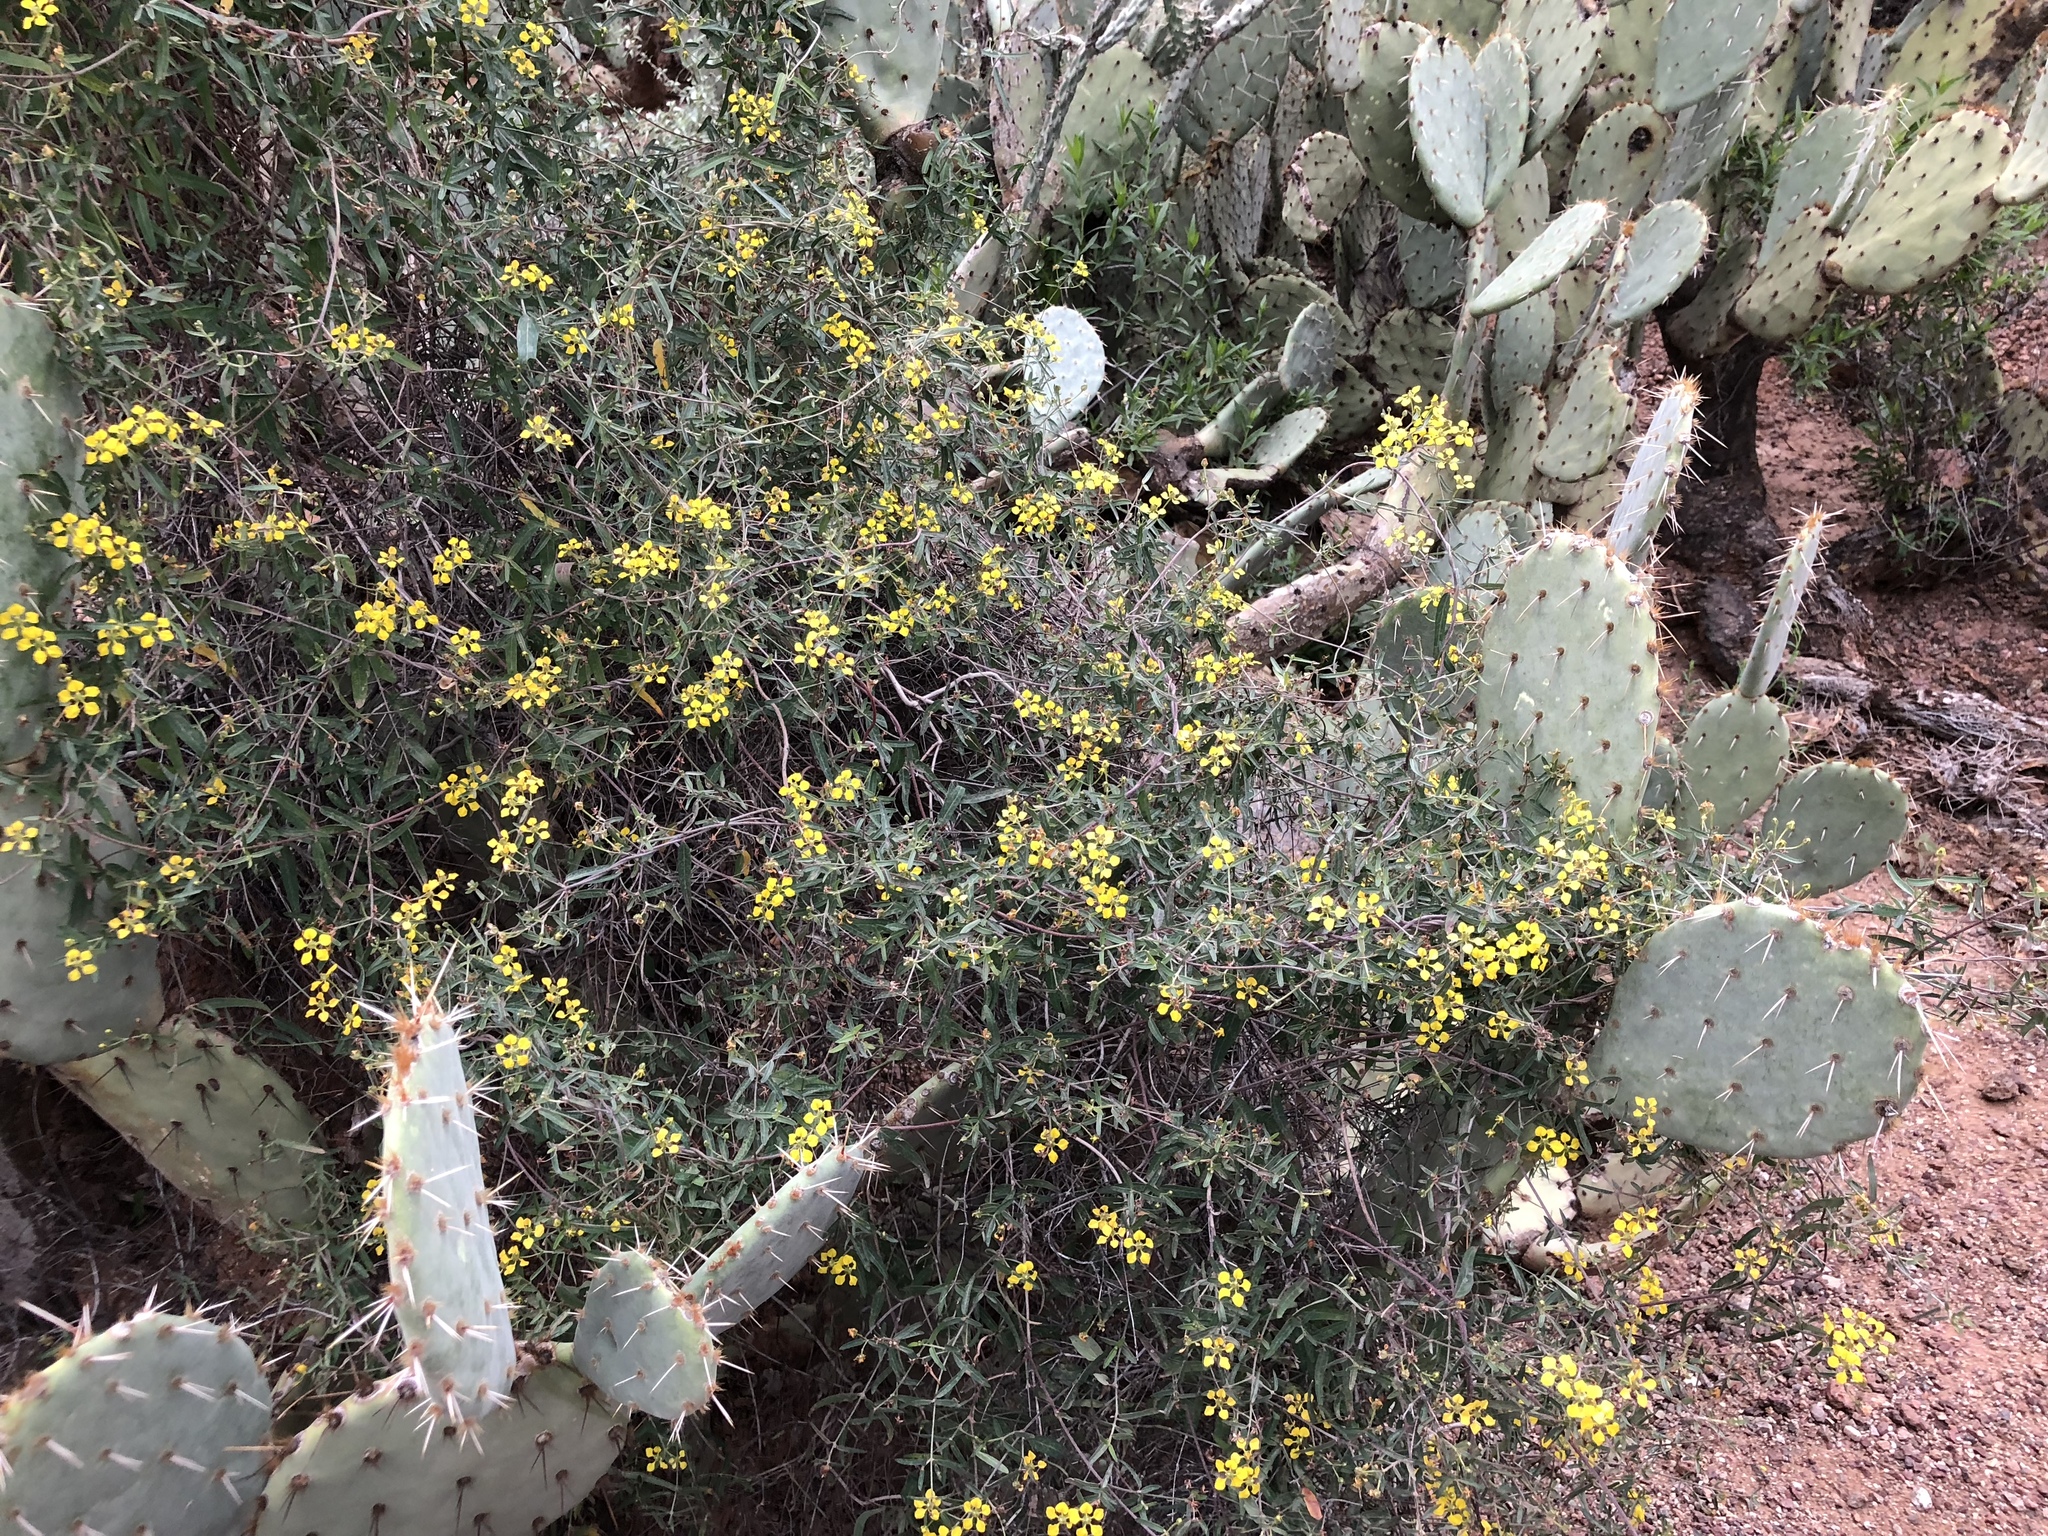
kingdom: Plantae
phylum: Tracheophyta
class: Magnoliopsida
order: Malpighiales
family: Malpighiaceae
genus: Cottsia
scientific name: Cottsia gracilis
